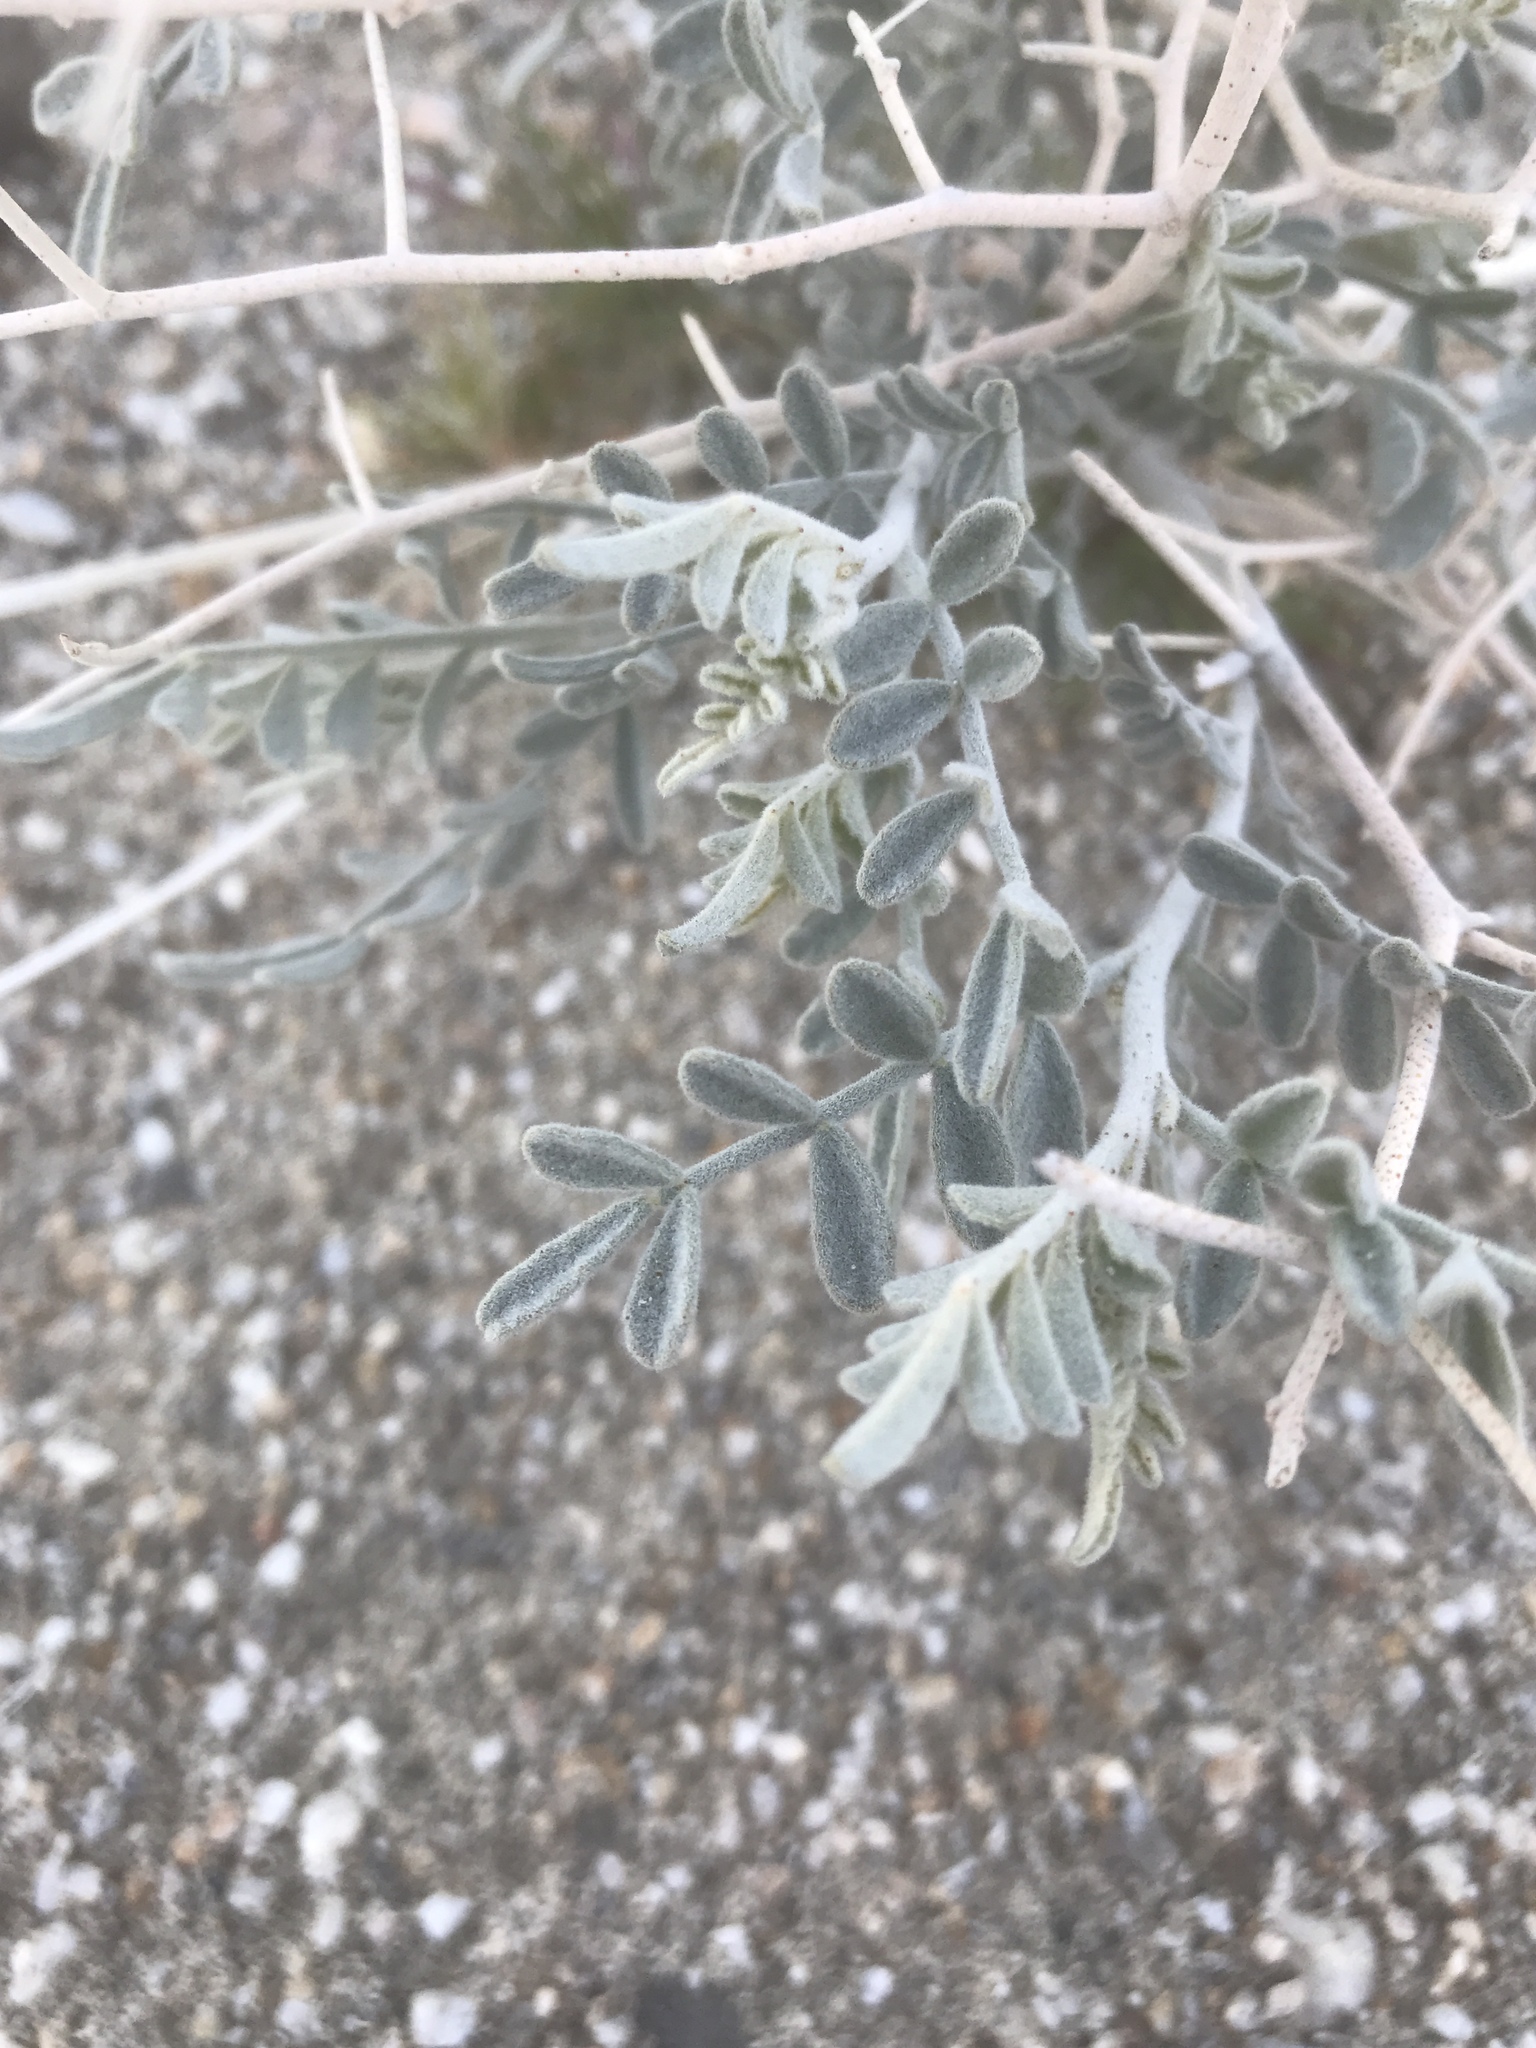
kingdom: Plantae
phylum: Tracheophyta
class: Magnoliopsida
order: Fabales
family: Fabaceae
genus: Psorothamnus
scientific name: Psorothamnus emoryi
